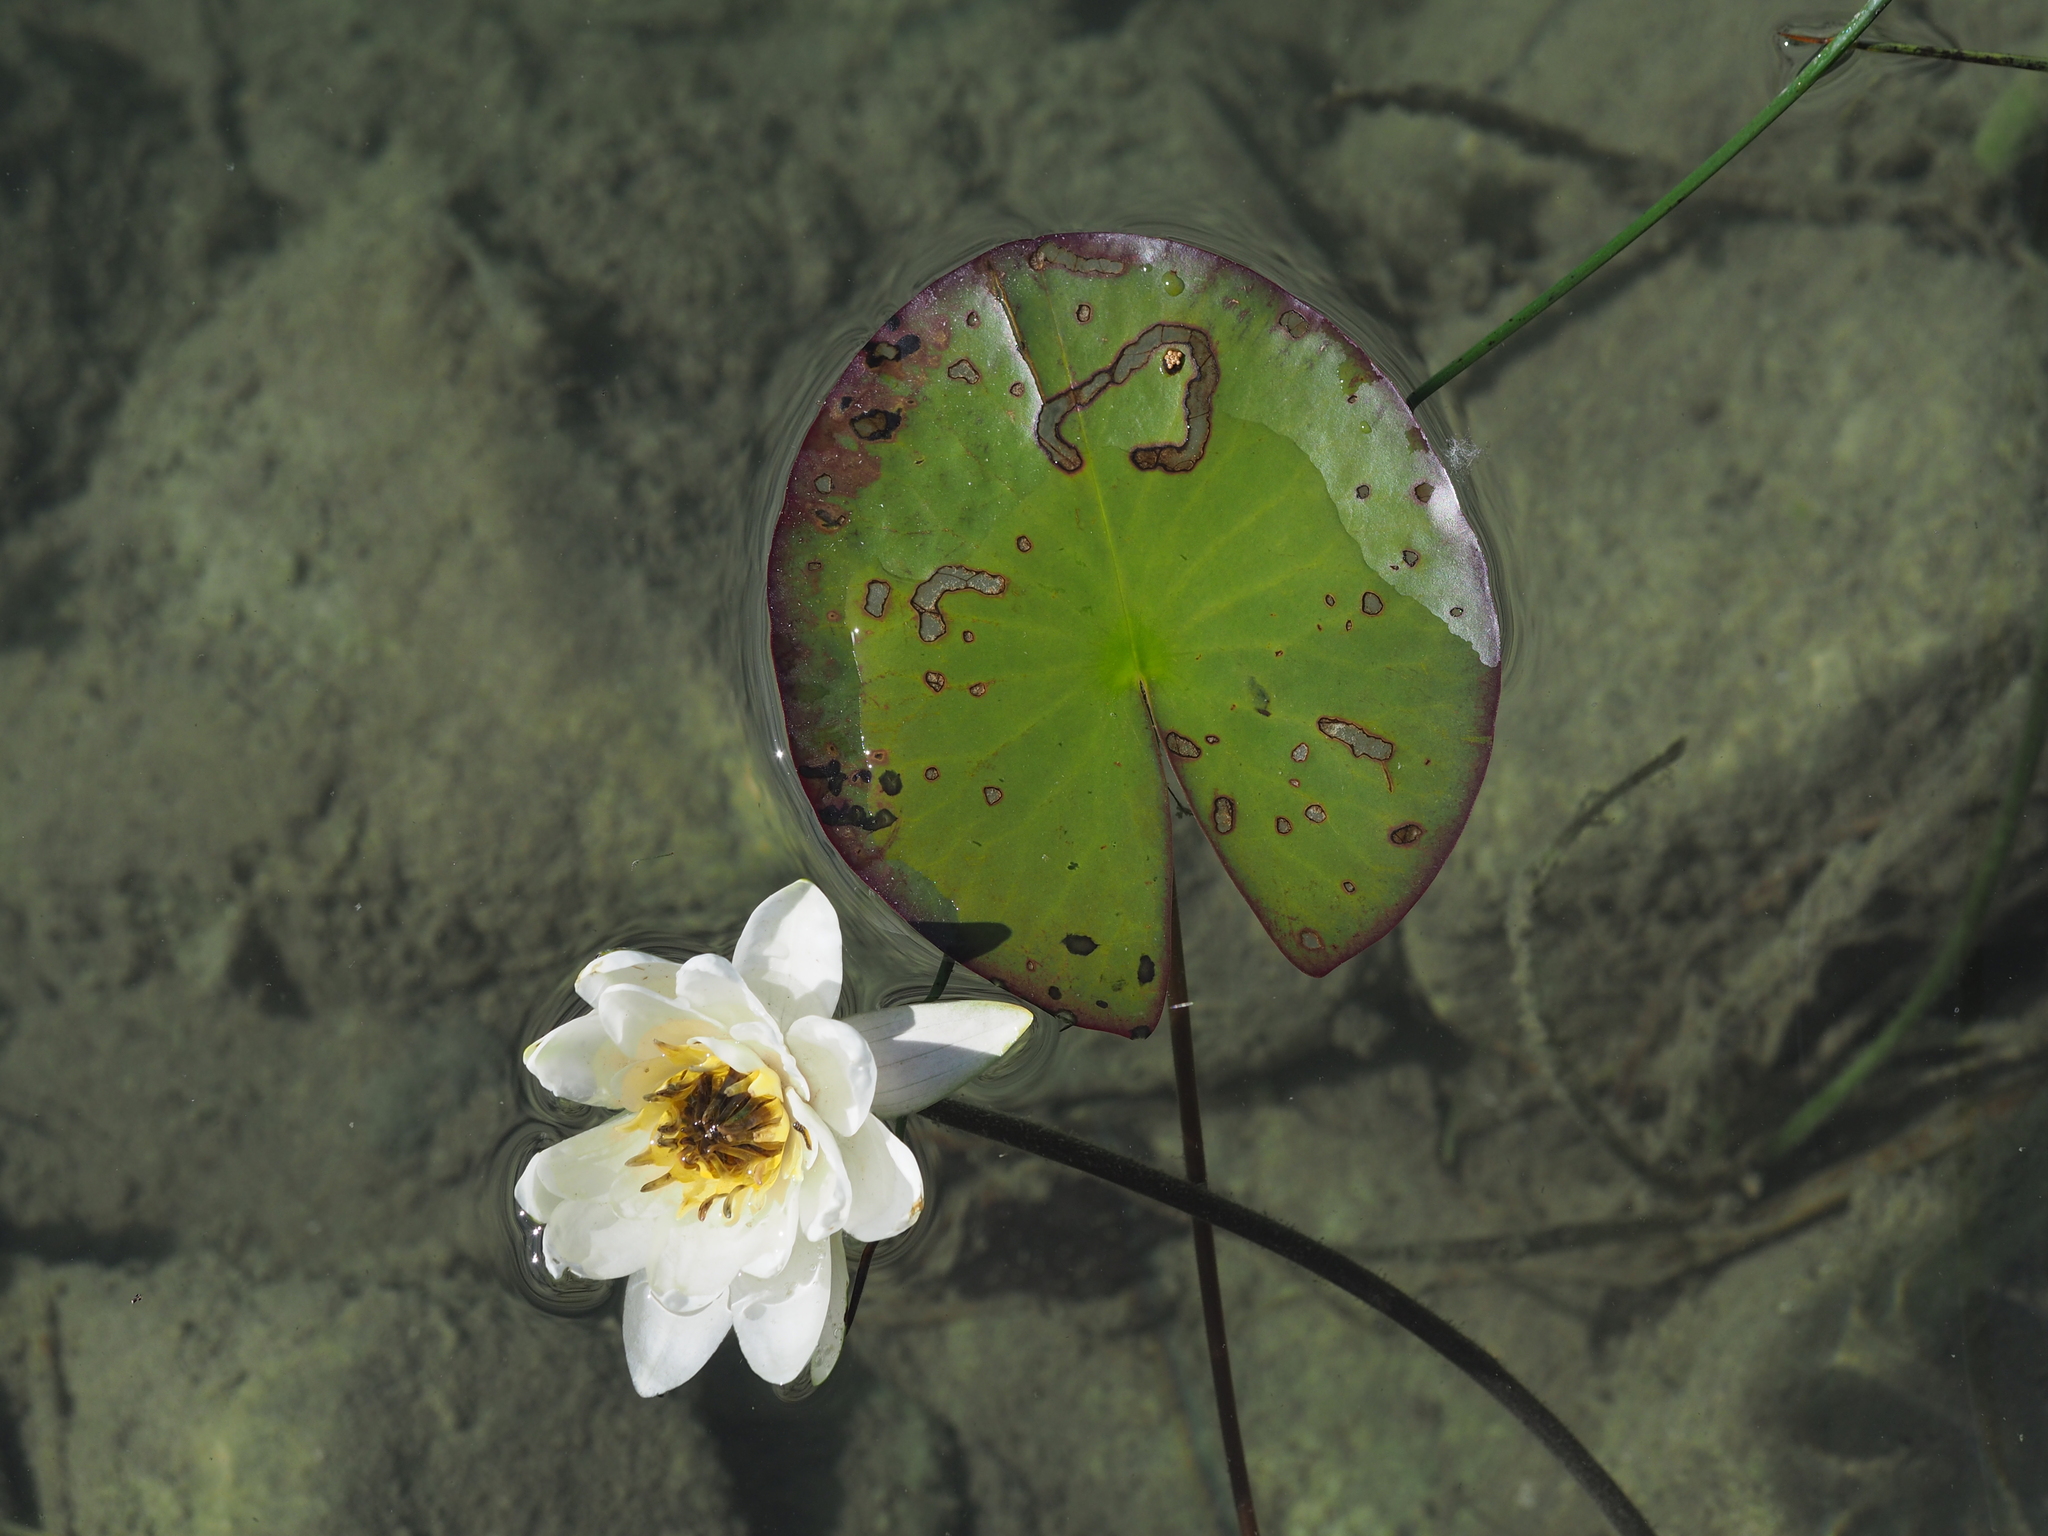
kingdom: Animalia
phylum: Arthropoda
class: Insecta
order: Coleoptera
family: Chrysomelidae
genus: Galerucella
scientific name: Galerucella nymphaeae
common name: Leaf beetle
